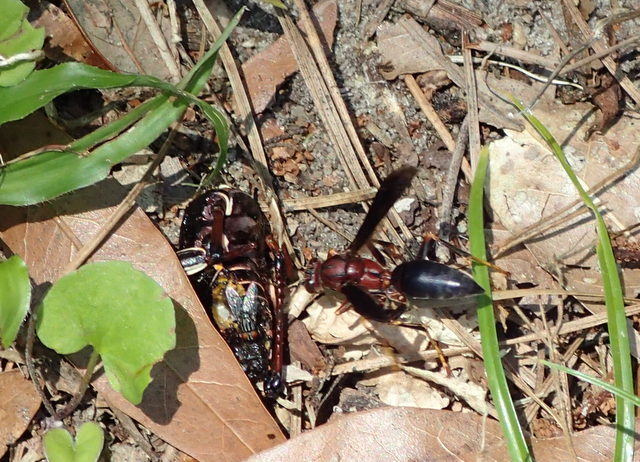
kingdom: Animalia
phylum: Arthropoda
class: Insecta
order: Hymenoptera
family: Eumenidae
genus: Polistes
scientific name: Polistes metricus
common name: Metric paper wasp
